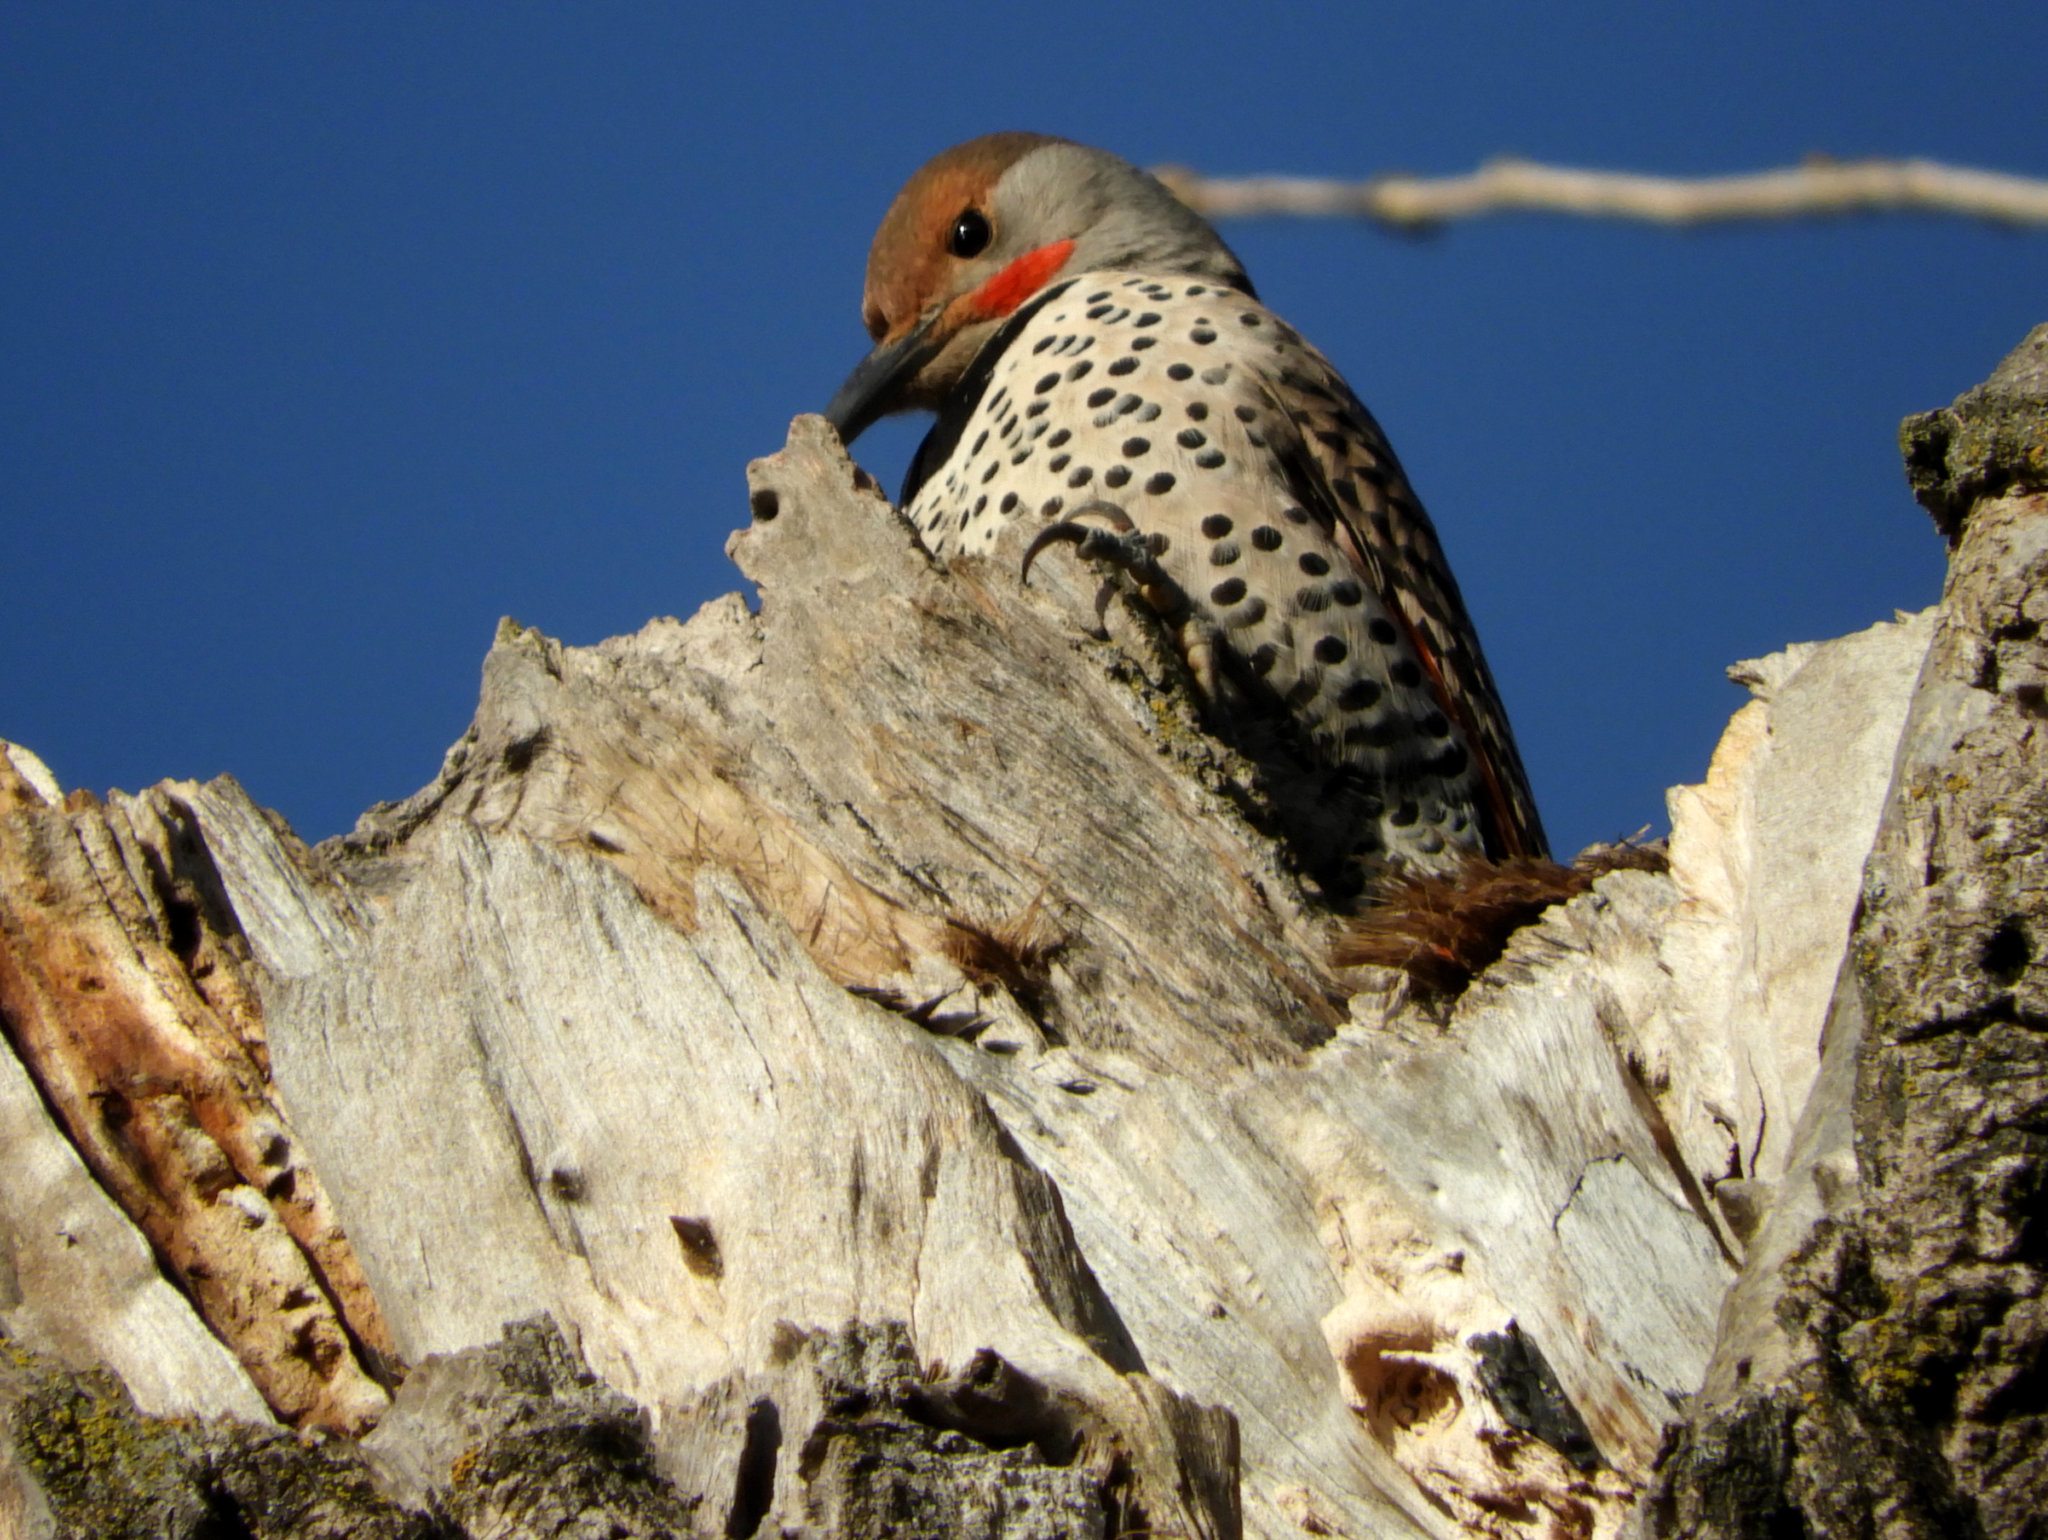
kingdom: Animalia
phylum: Chordata
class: Aves
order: Piciformes
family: Picidae
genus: Colaptes
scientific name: Colaptes auratus
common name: Northern flicker
